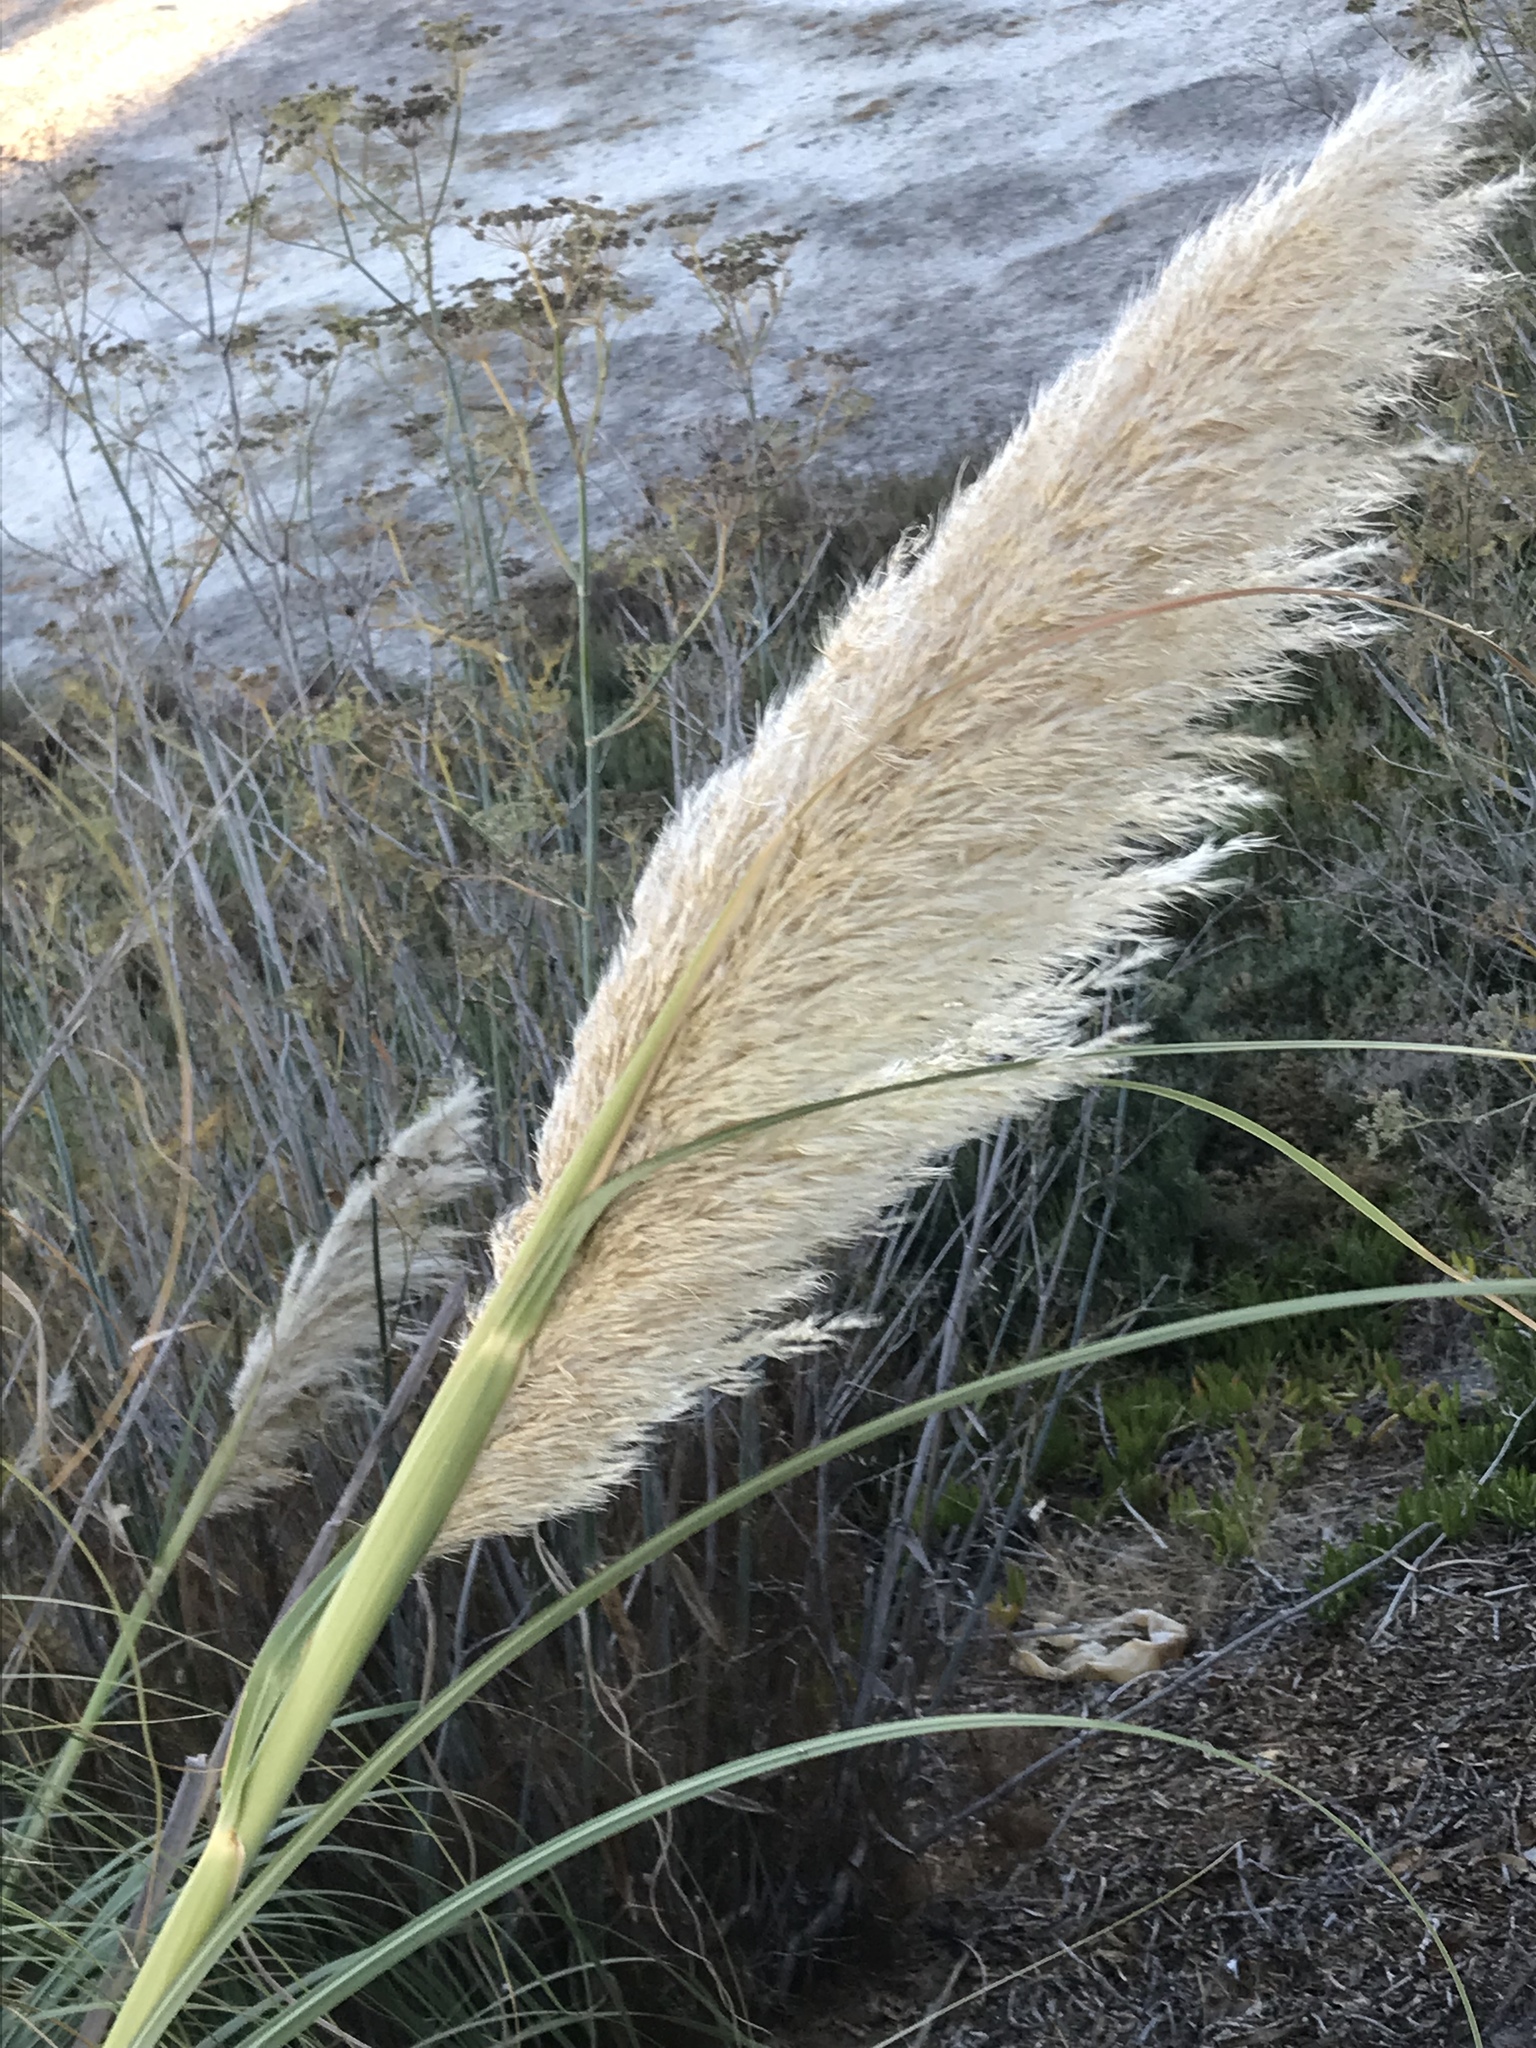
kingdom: Plantae
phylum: Tracheophyta
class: Liliopsida
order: Poales
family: Poaceae
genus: Cortaderia
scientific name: Cortaderia selloana
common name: Uruguayan pampas grass
